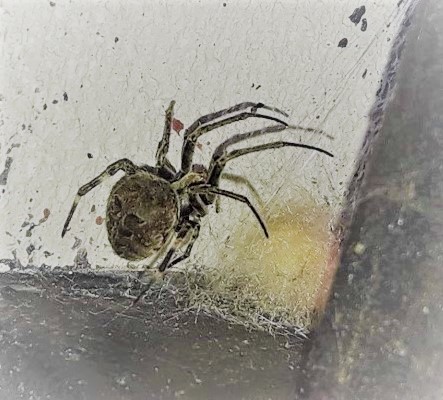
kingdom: Animalia
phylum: Arthropoda
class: Arachnida
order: Araneae
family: Araneidae
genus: Neoscona
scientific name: Neoscona nautica
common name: Orb weavers
